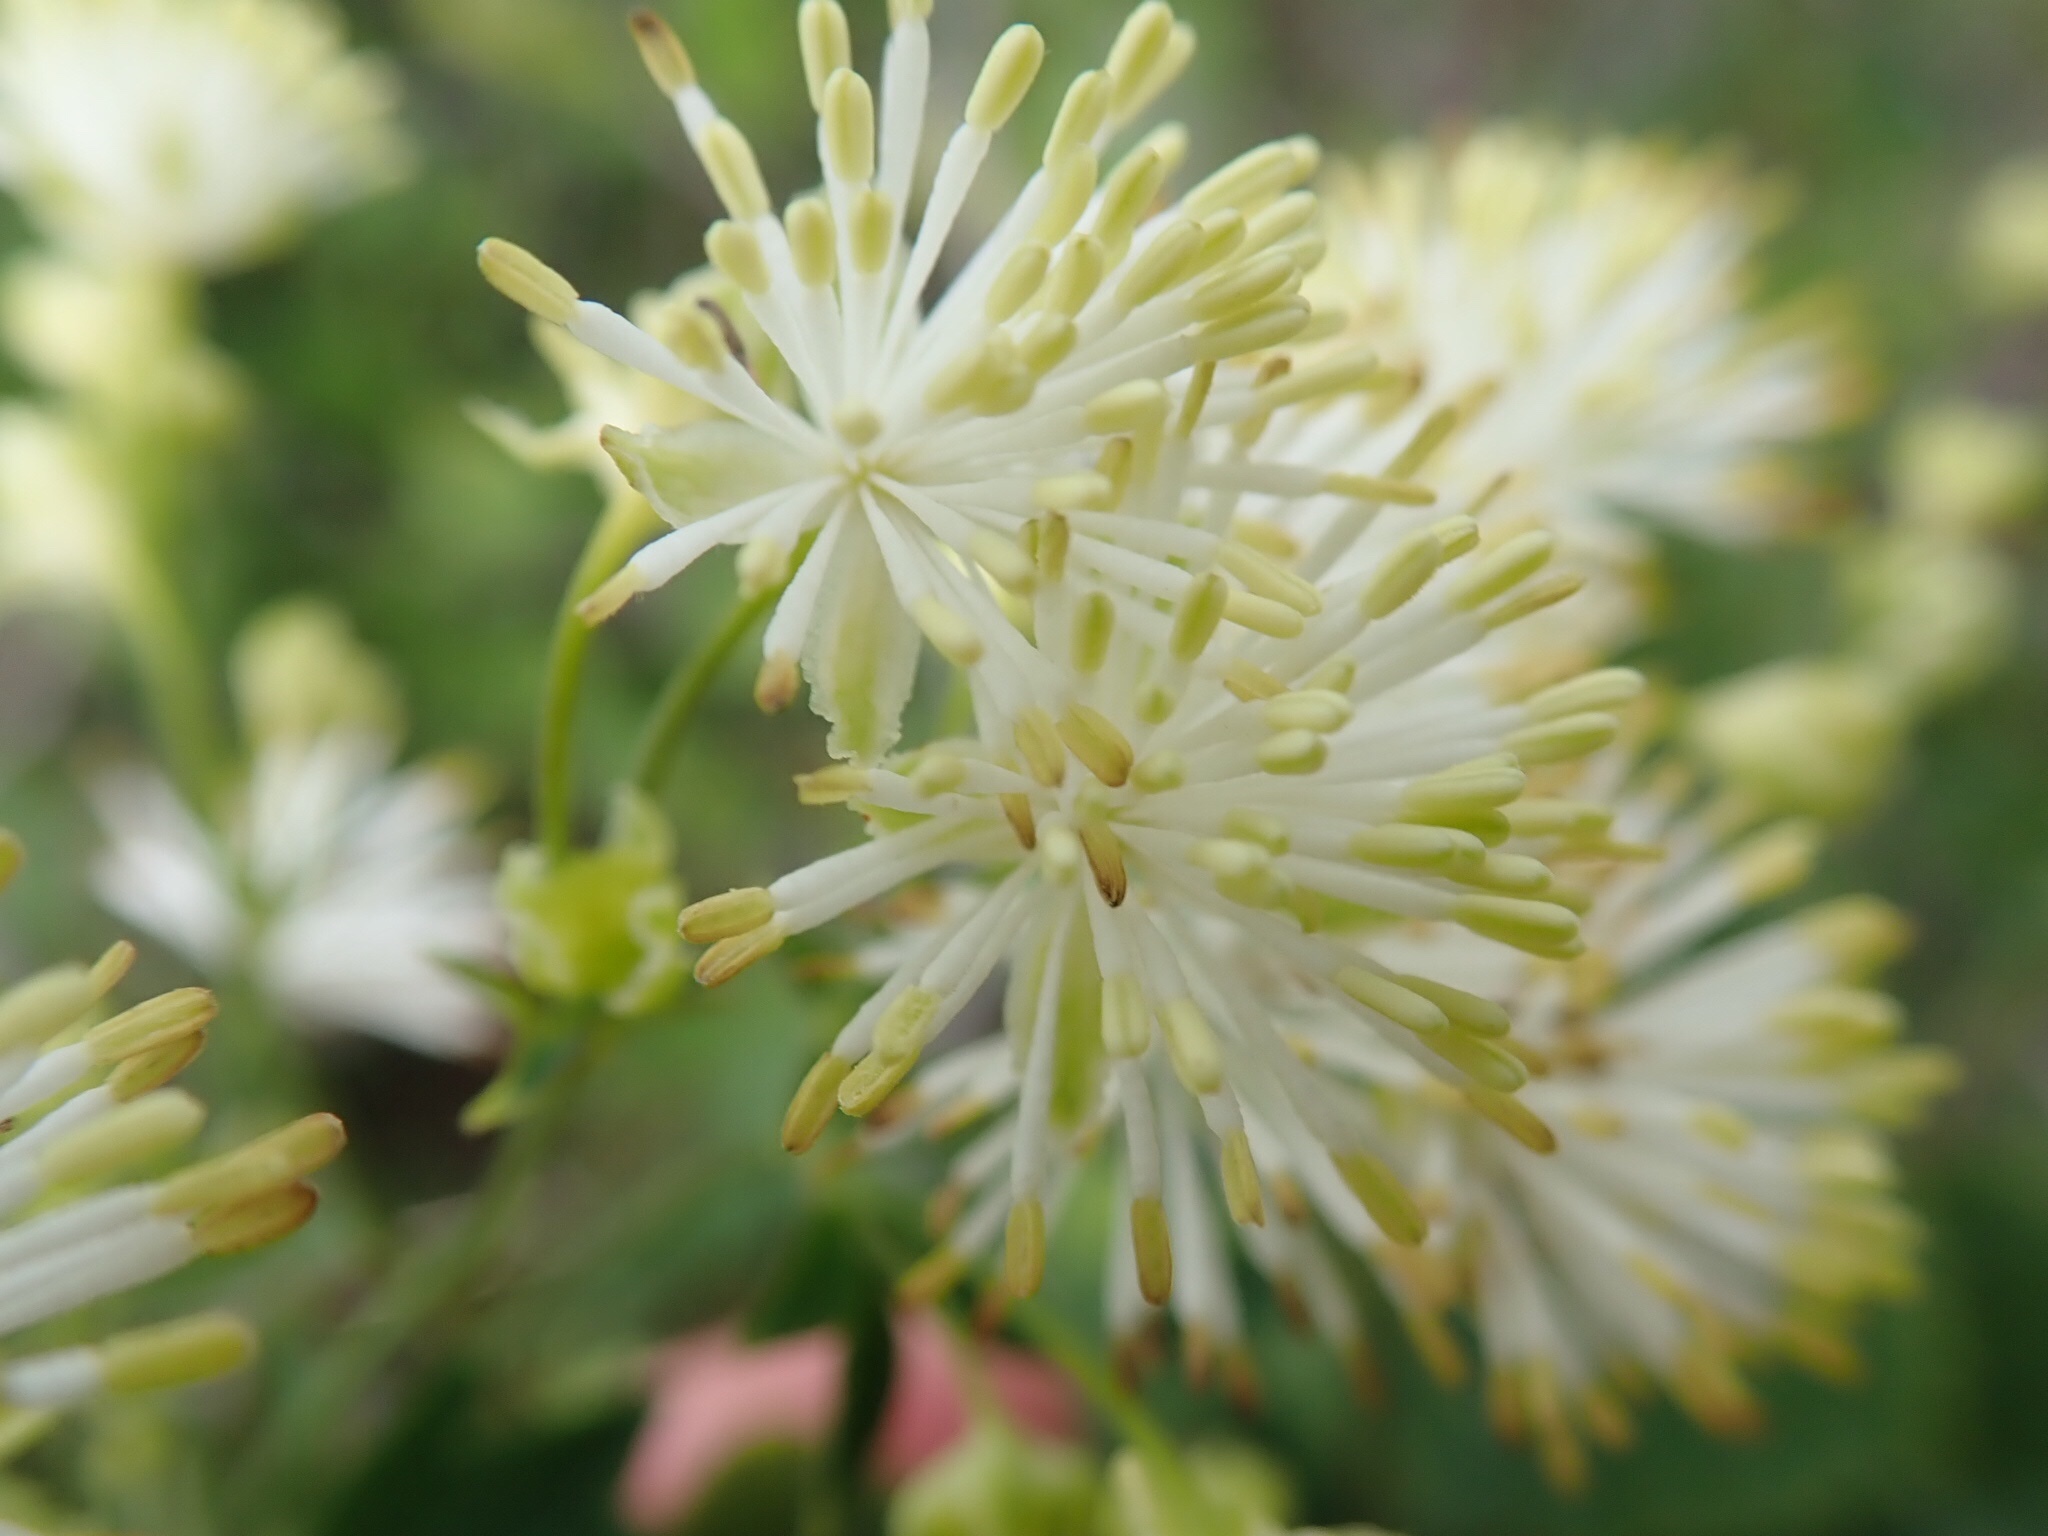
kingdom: Plantae
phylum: Tracheophyta
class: Magnoliopsida
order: Ranunculales
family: Ranunculaceae
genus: Thalictrum
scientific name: Thalictrum pubescens
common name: King-of-the-meadow
